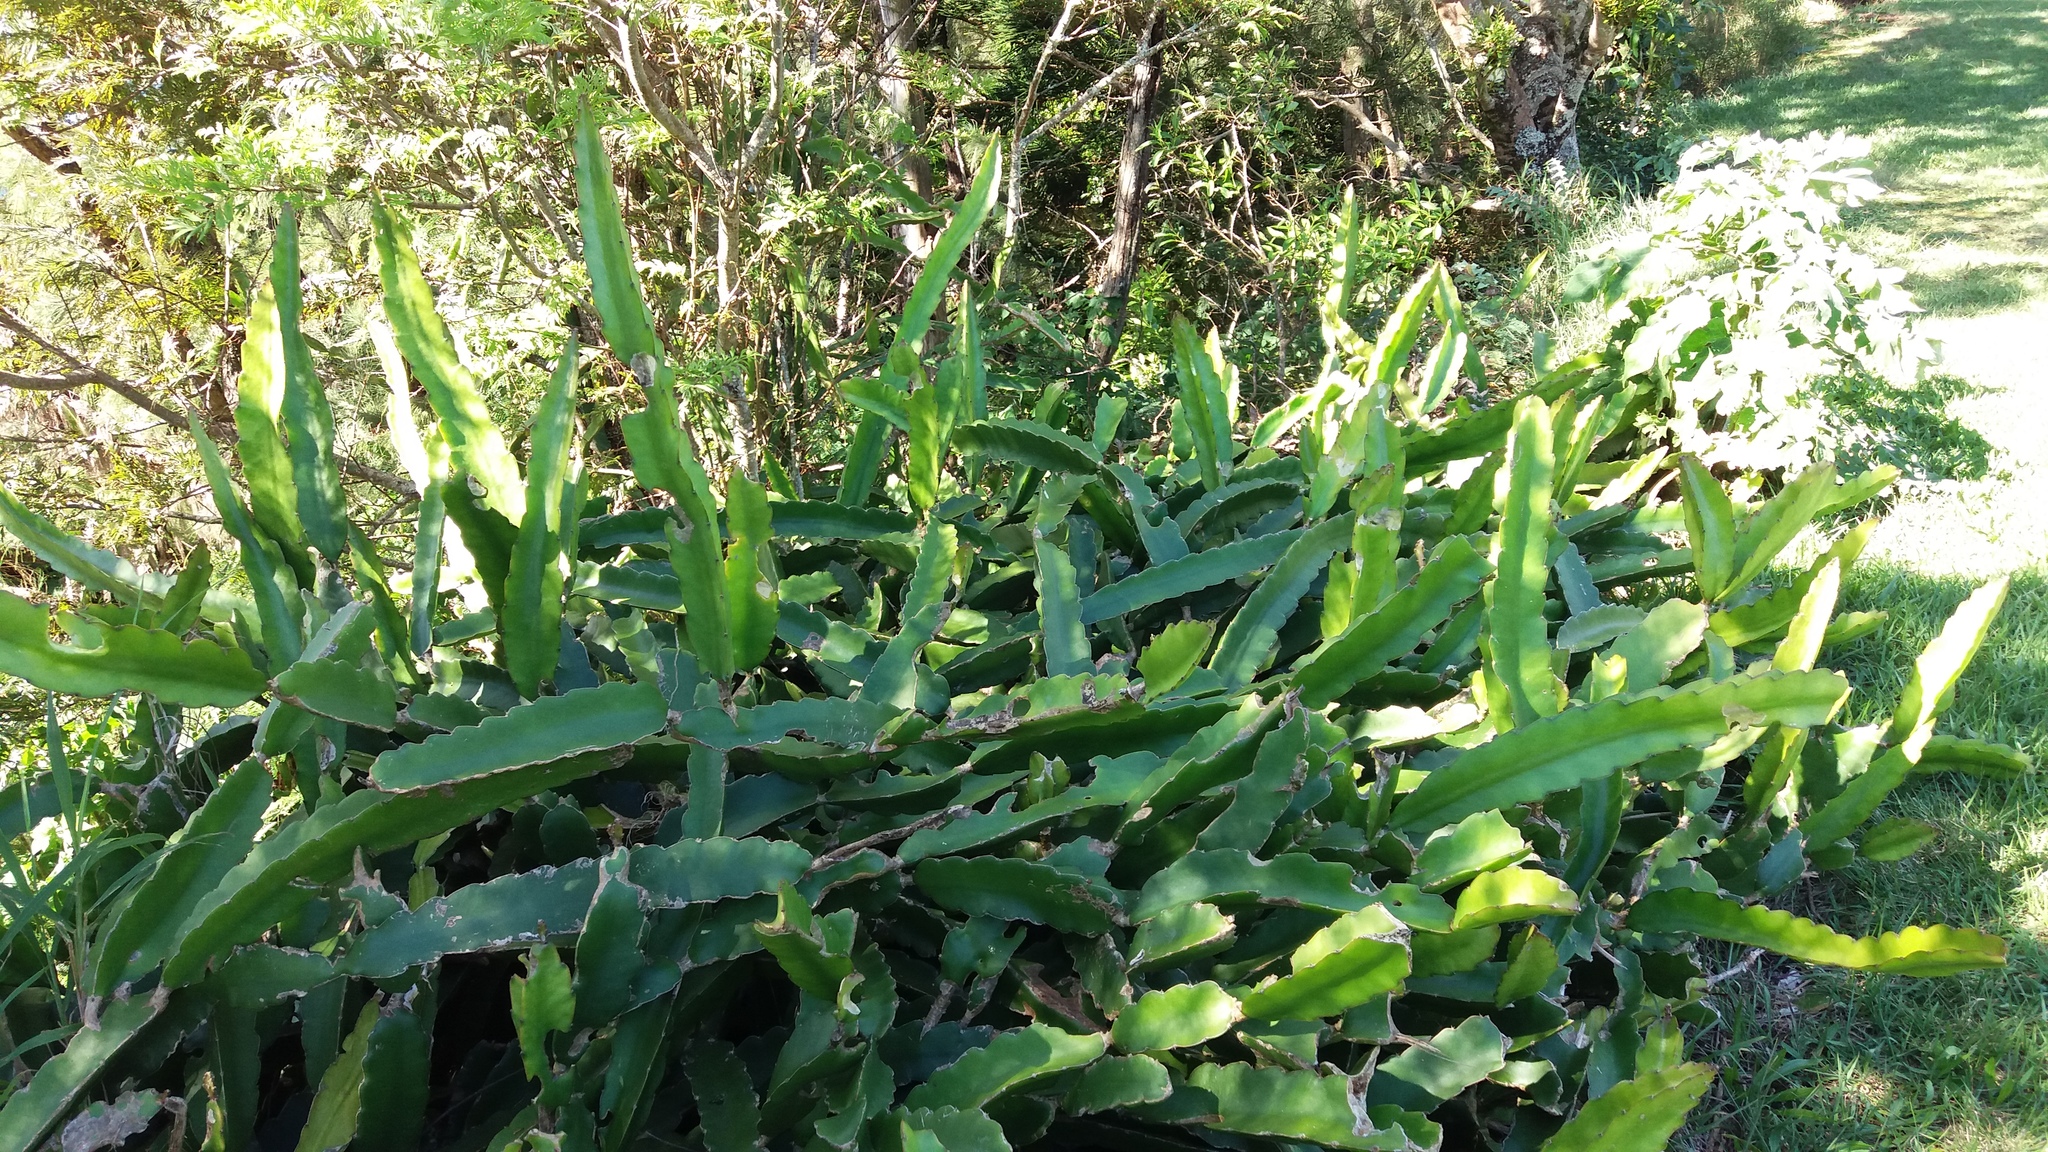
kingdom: Plantae
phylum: Tracheophyta
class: Magnoliopsida
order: Caryophyllales
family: Cactaceae
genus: Selenicereus
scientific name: Selenicereus undatus
